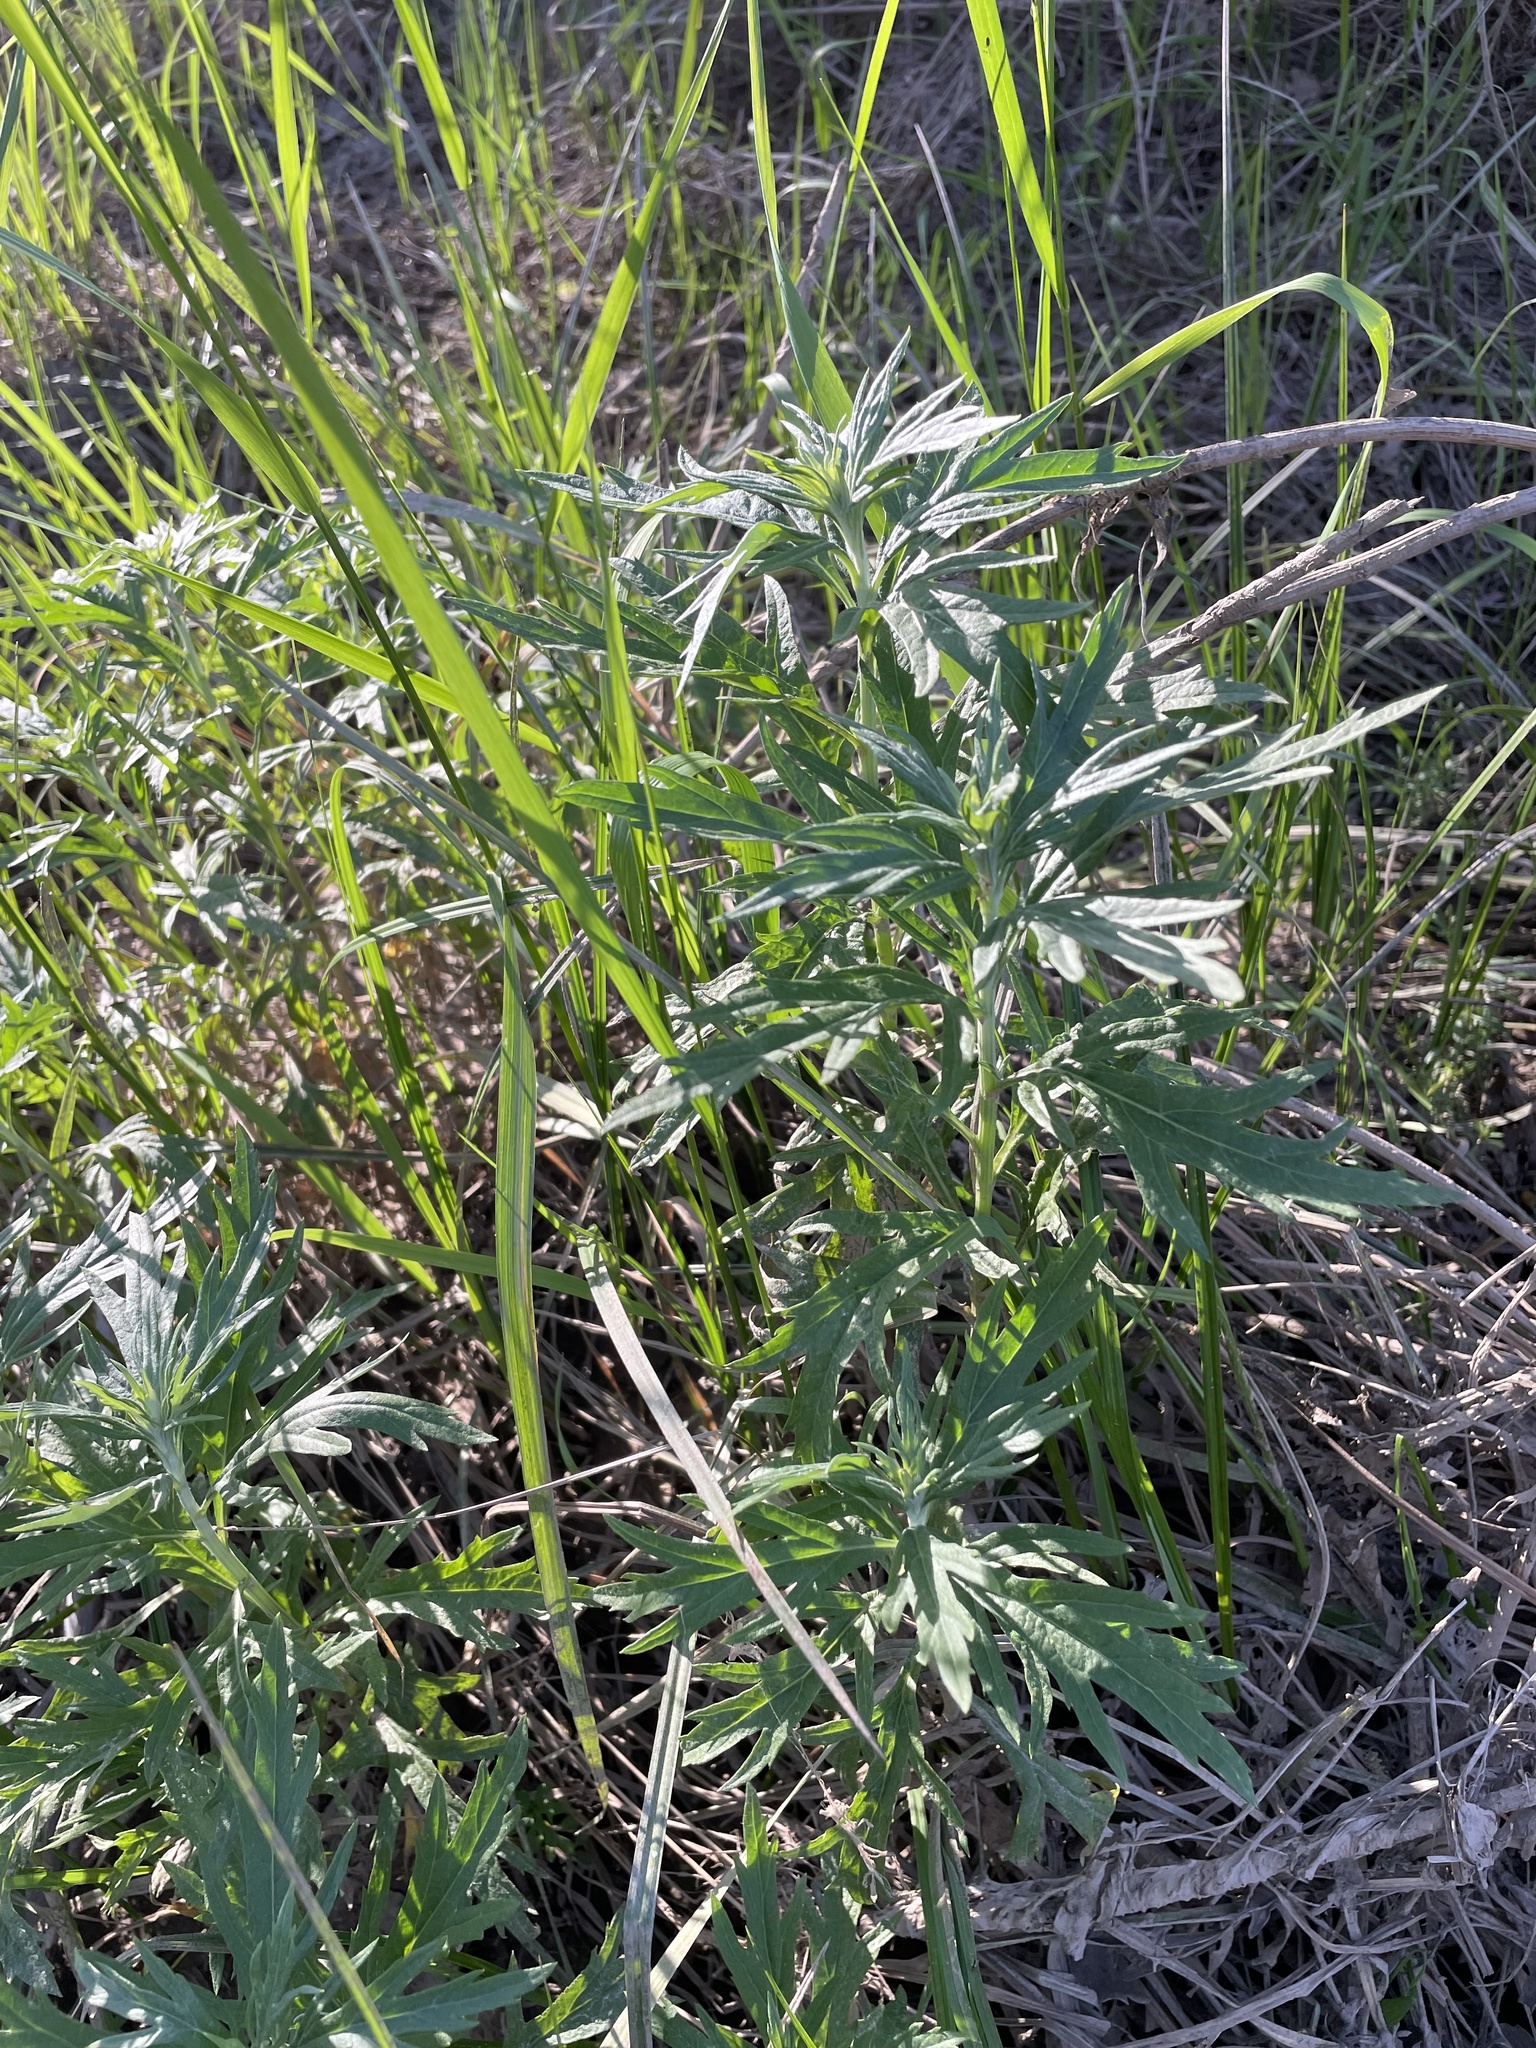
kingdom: Plantae
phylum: Tracheophyta
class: Magnoliopsida
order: Asterales
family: Asteraceae
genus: Artemisia
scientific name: Artemisia douglasiana
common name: Northwest mugwort
